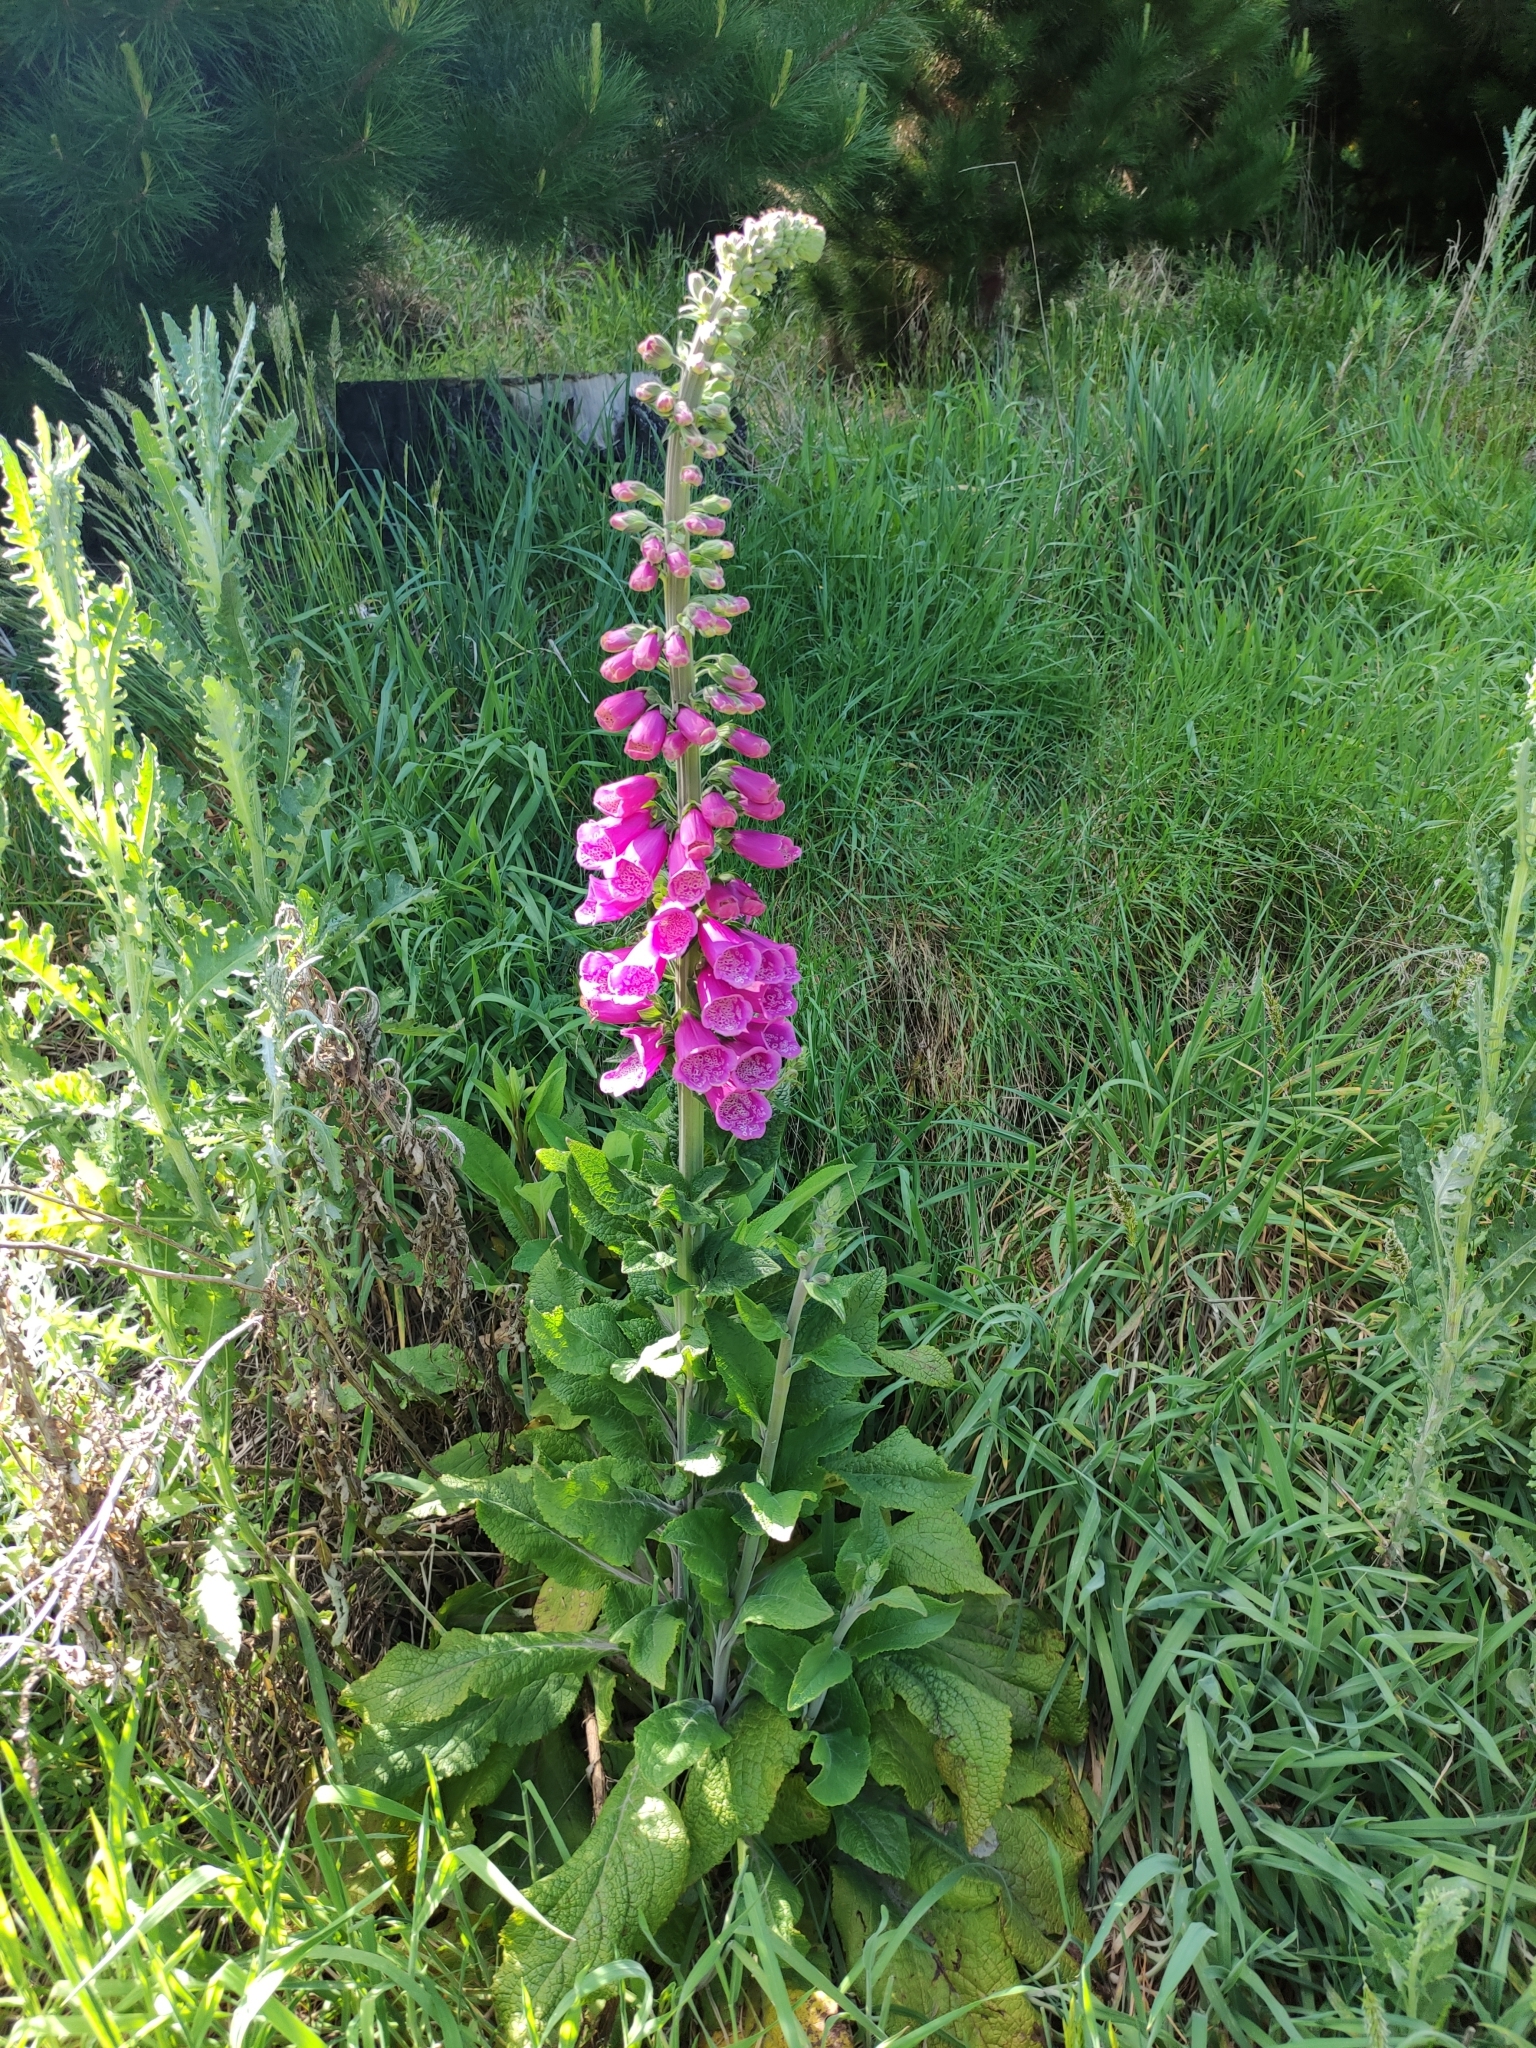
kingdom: Plantae
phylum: Tracheophyta
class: Magnoliopsida
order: Lamiales
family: Plantaginaceae
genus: Digitalis
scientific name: Digitalis purpurea
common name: Foxglove
